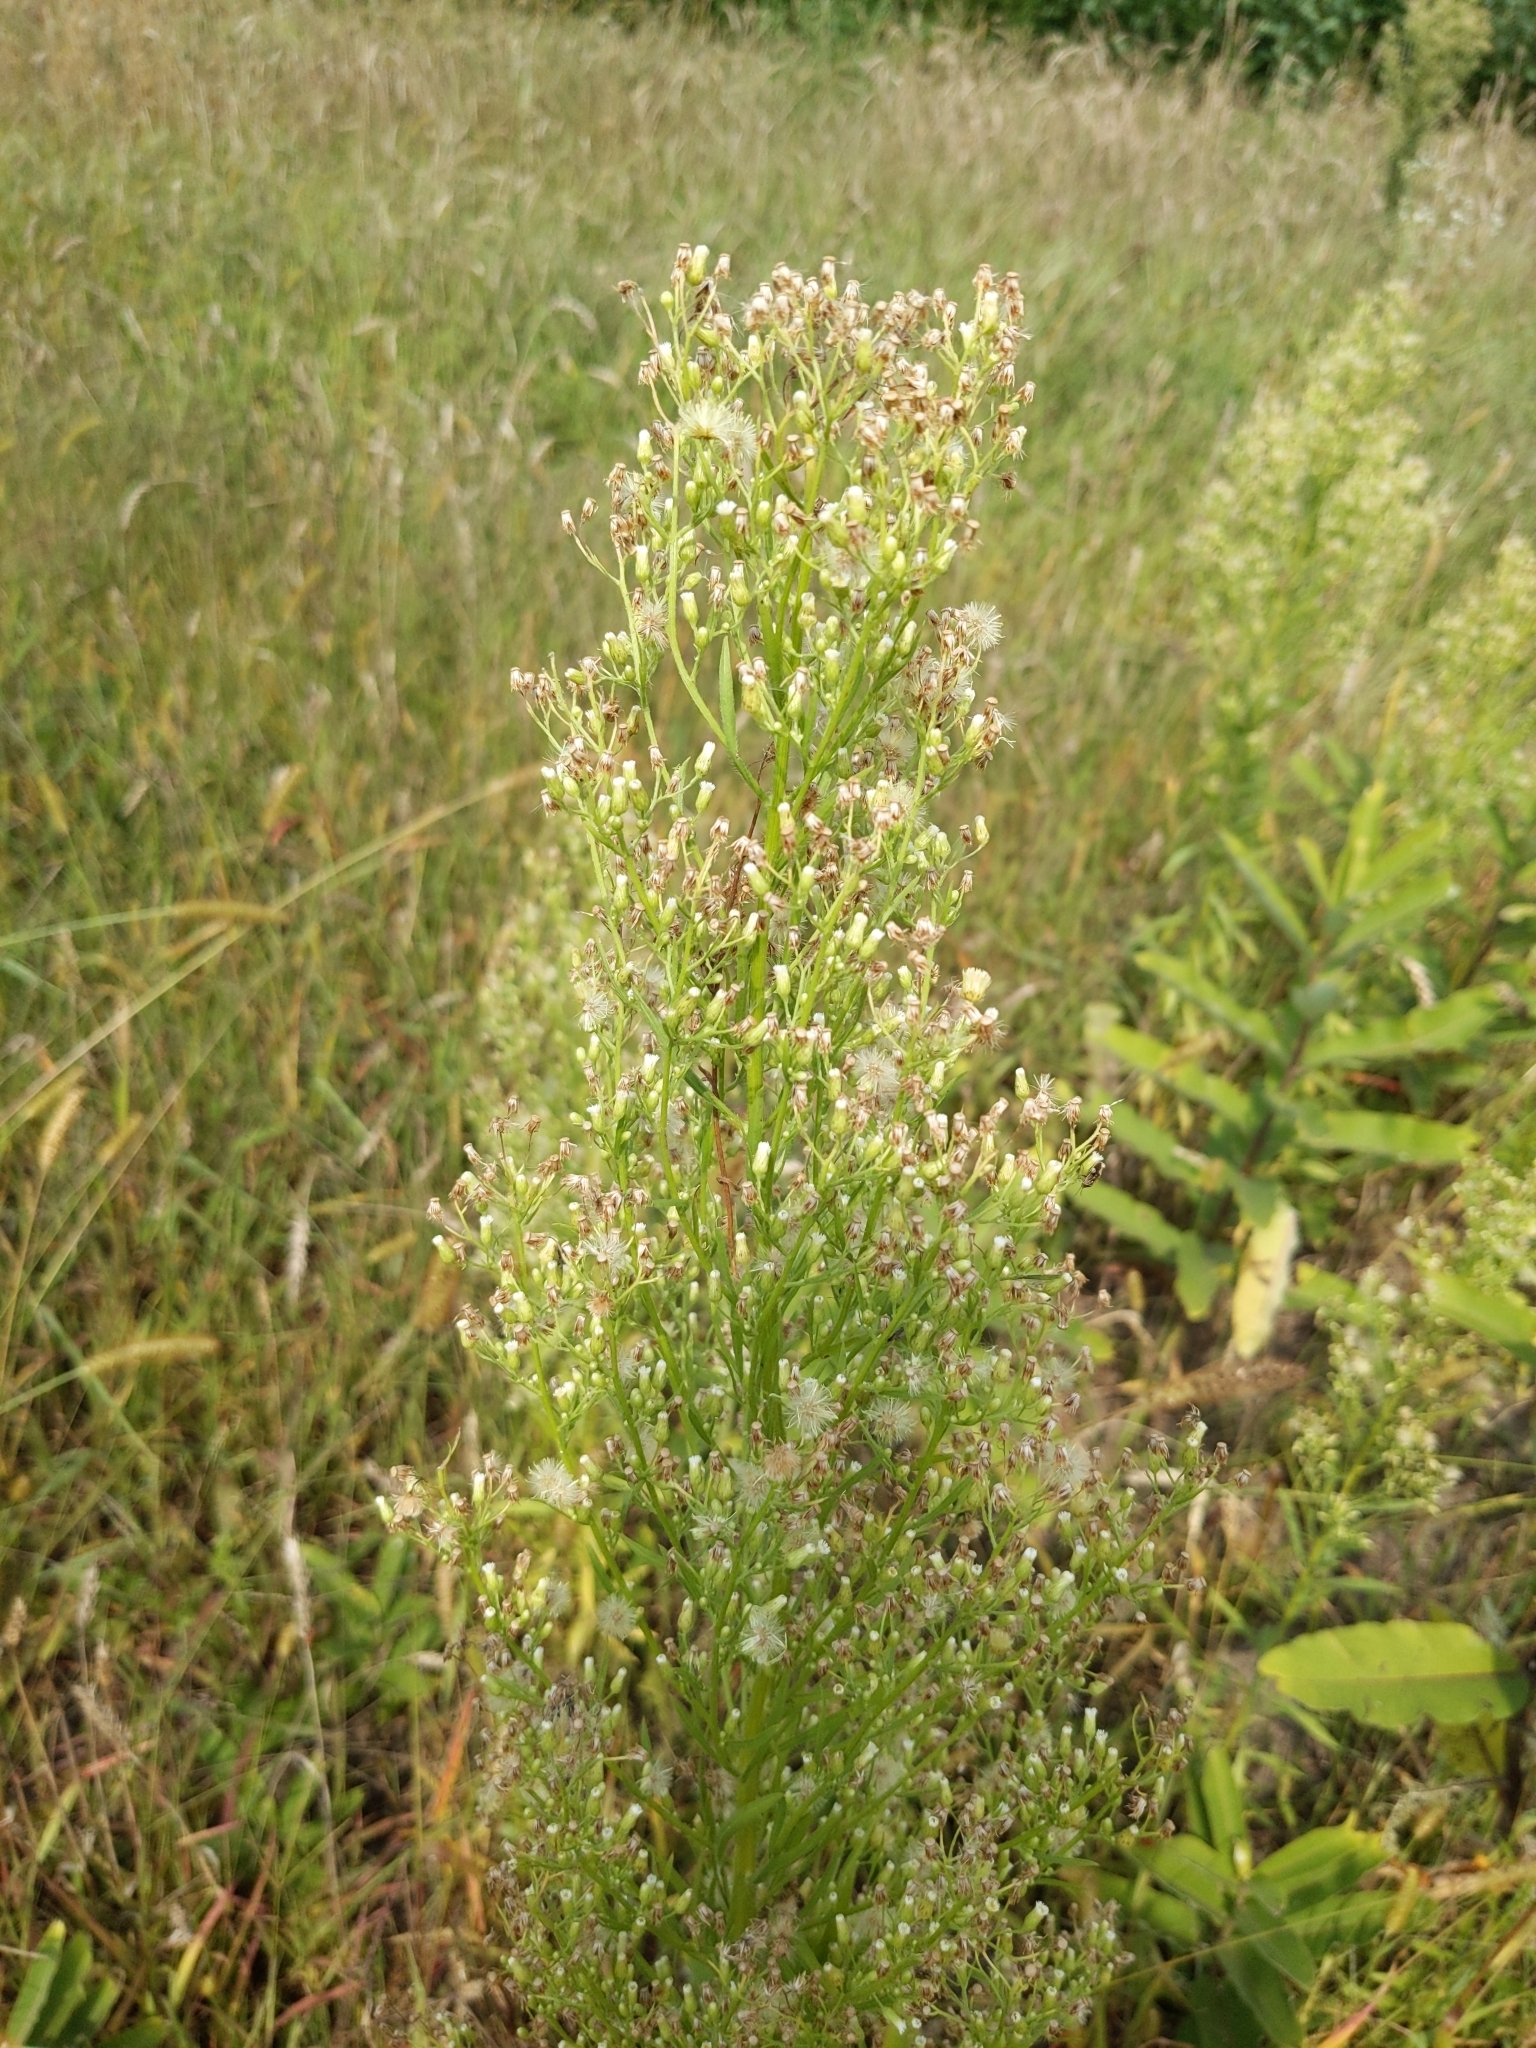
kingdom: Plantae
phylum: Tracheophyta
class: Magnoliopsida
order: Asterales
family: Asteraceae
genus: Erigeron
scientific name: Erigeron canadensis
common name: Canadian fleabane
